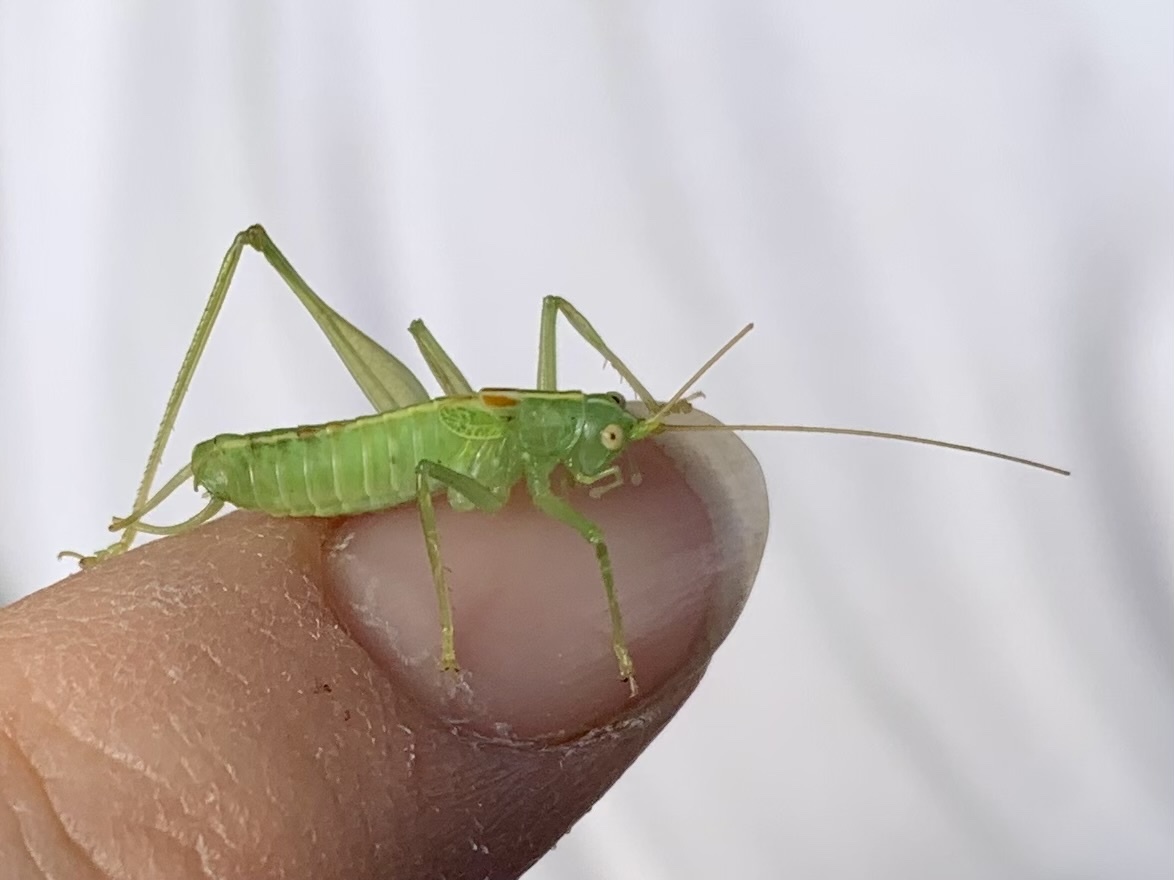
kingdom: Animalia
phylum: Arthropoda
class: Insecta
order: Orthoptera
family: Tettigoniidae
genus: Meconema
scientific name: Meconema meridionale
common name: Southern oak bush-cricket
